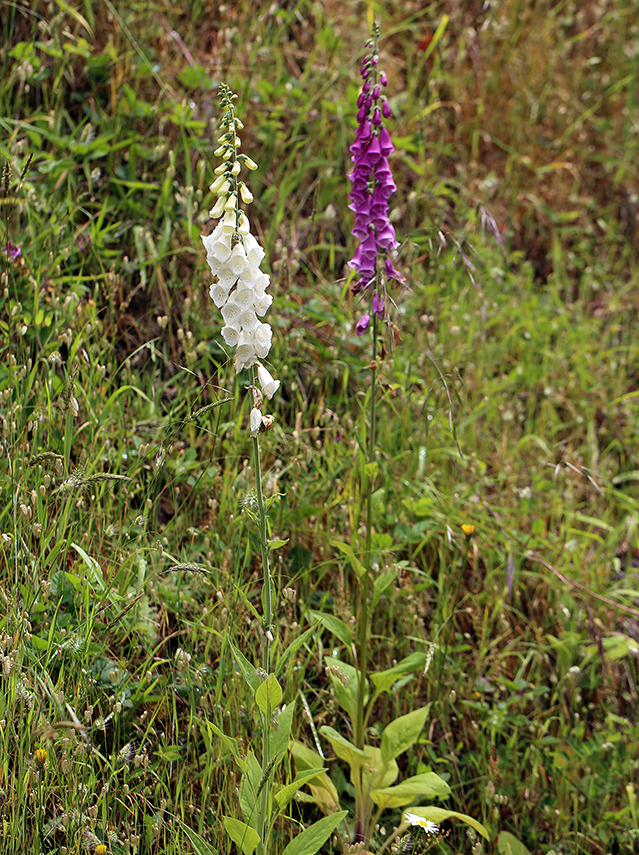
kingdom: Plantae
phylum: Tracheophyta
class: Magnoliopsida
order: Lamiales
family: Plantaginaceae
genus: Digitalis
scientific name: Digitalis purpurea
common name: Foxglove
